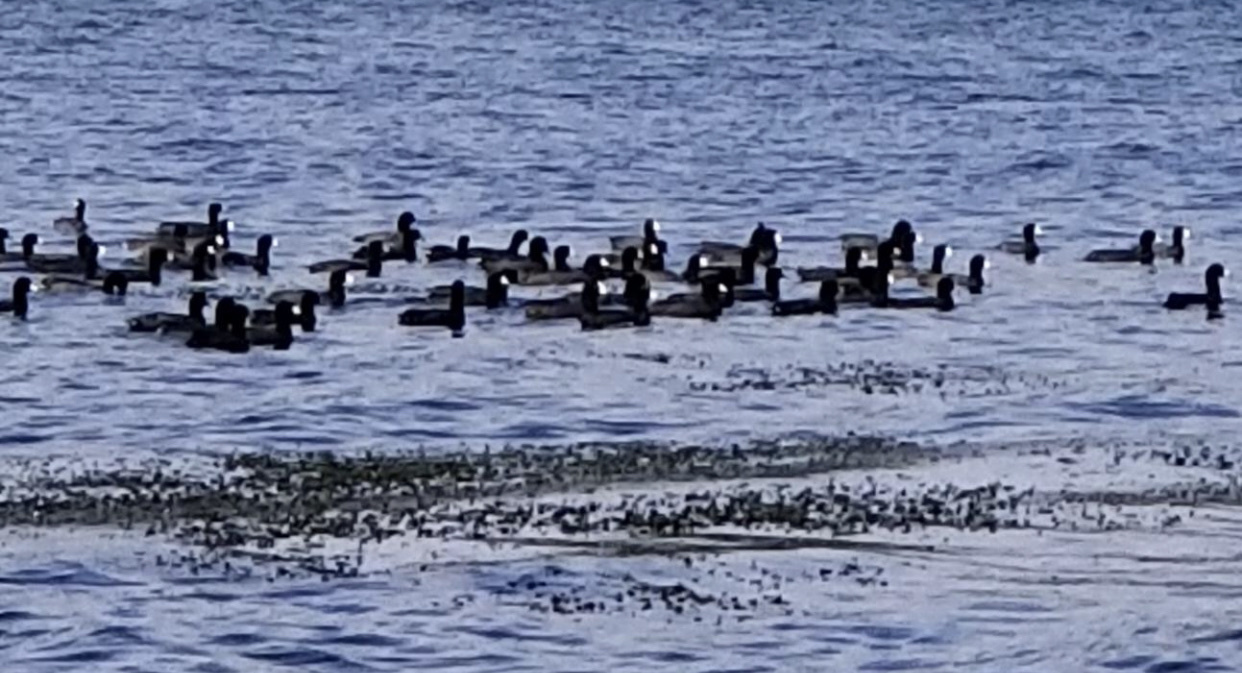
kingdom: Animalia
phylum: Chordata
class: Aves
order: Gruiformes
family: Rallidae
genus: Fulica
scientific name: Fulica americana
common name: American coot
